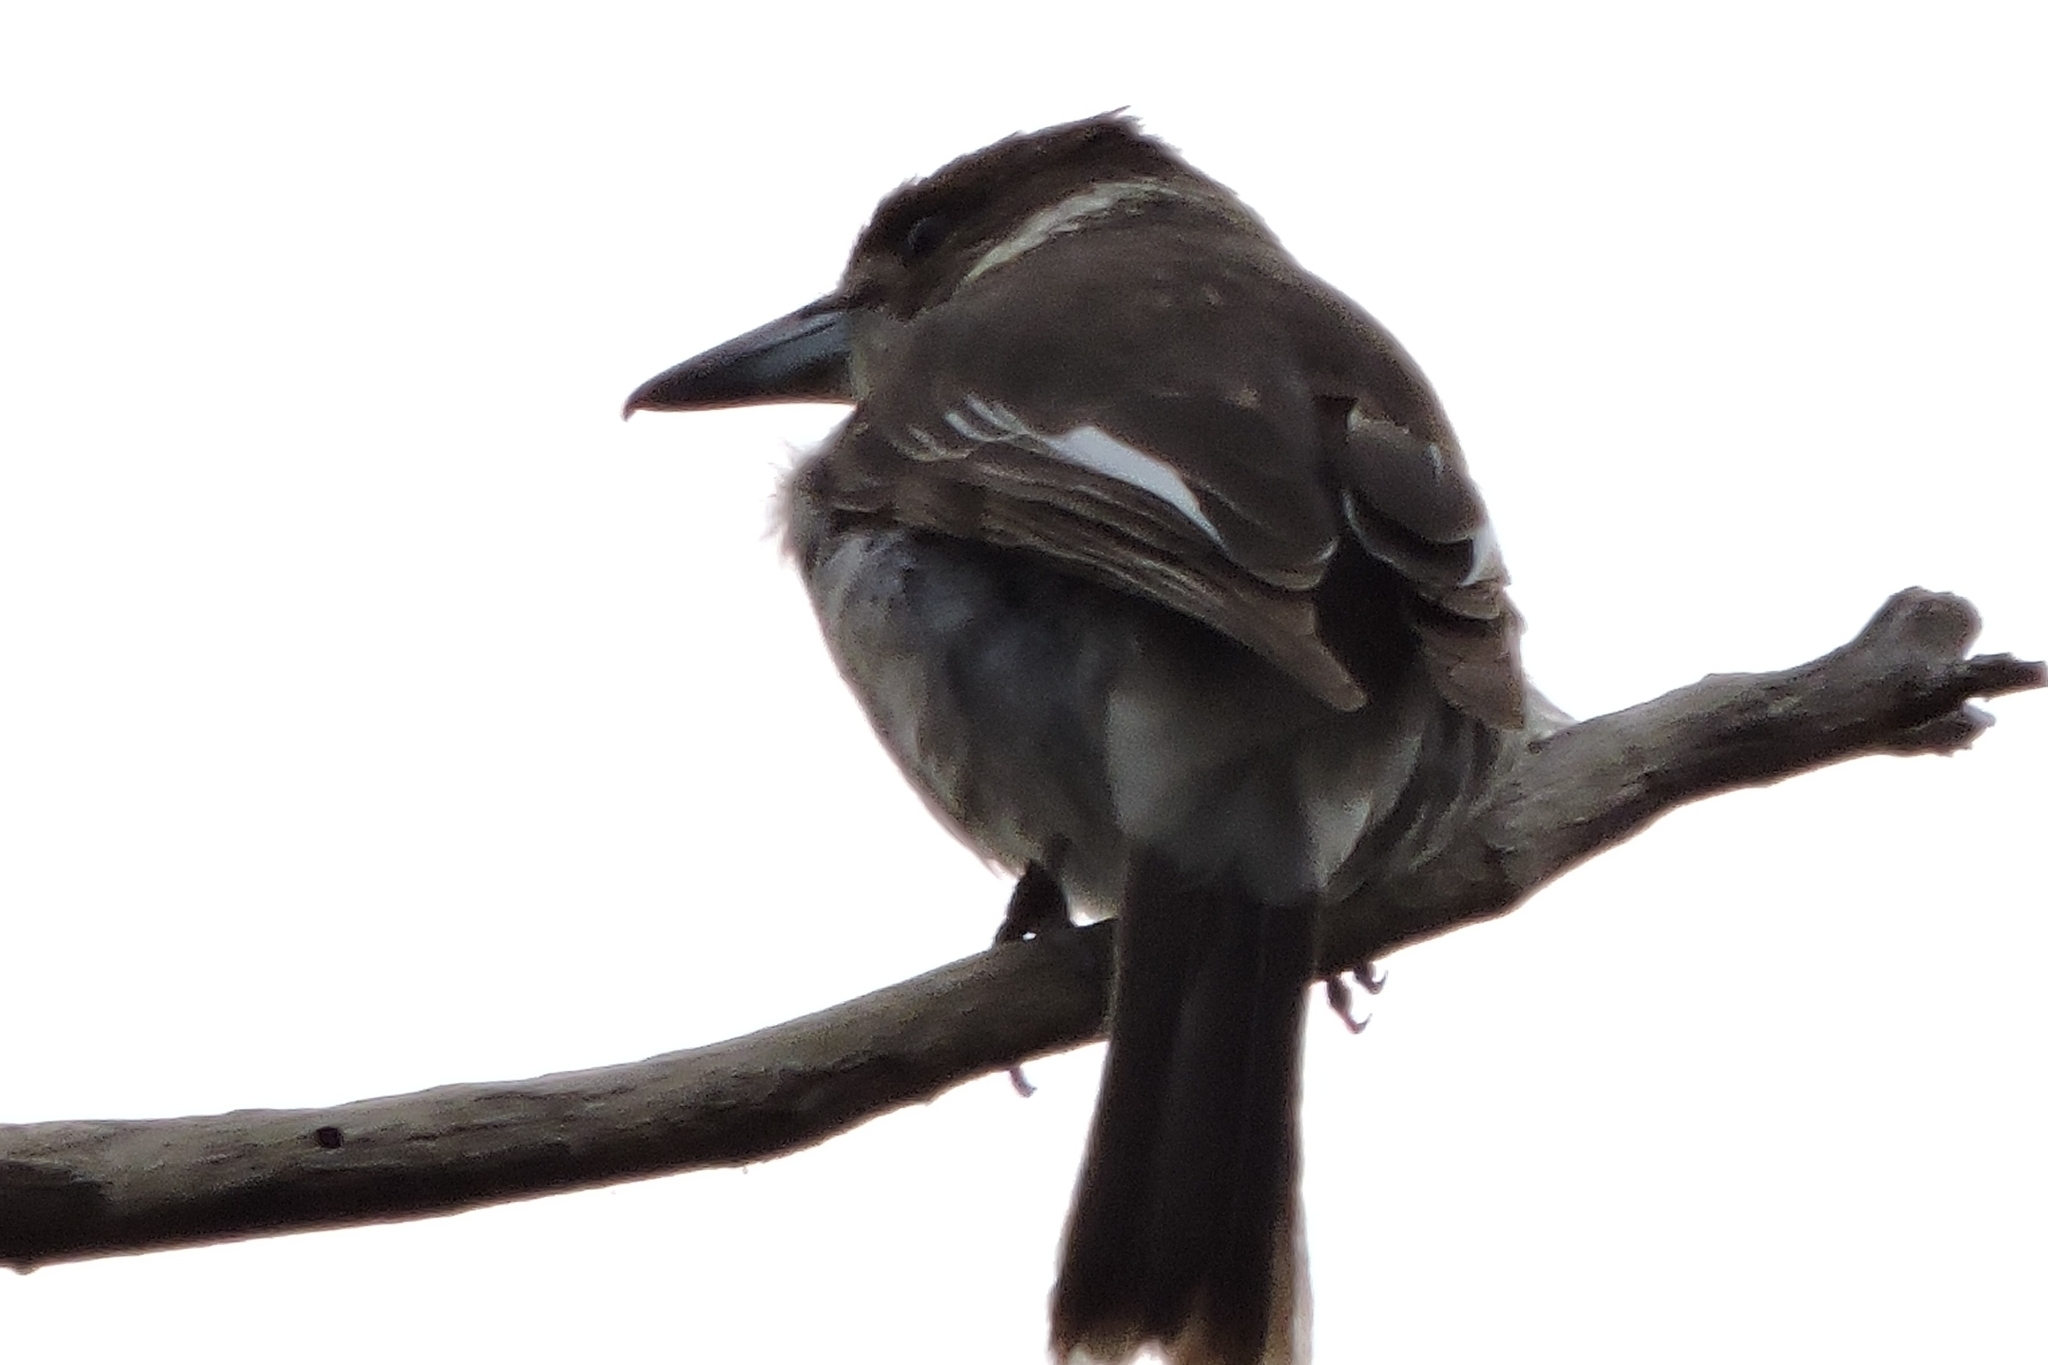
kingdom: Animalia
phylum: Chordata
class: Aves
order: Passeriformes
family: Cracticidae
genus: Cracticus
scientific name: Cracticus torquatus
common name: Grey butcherbird
